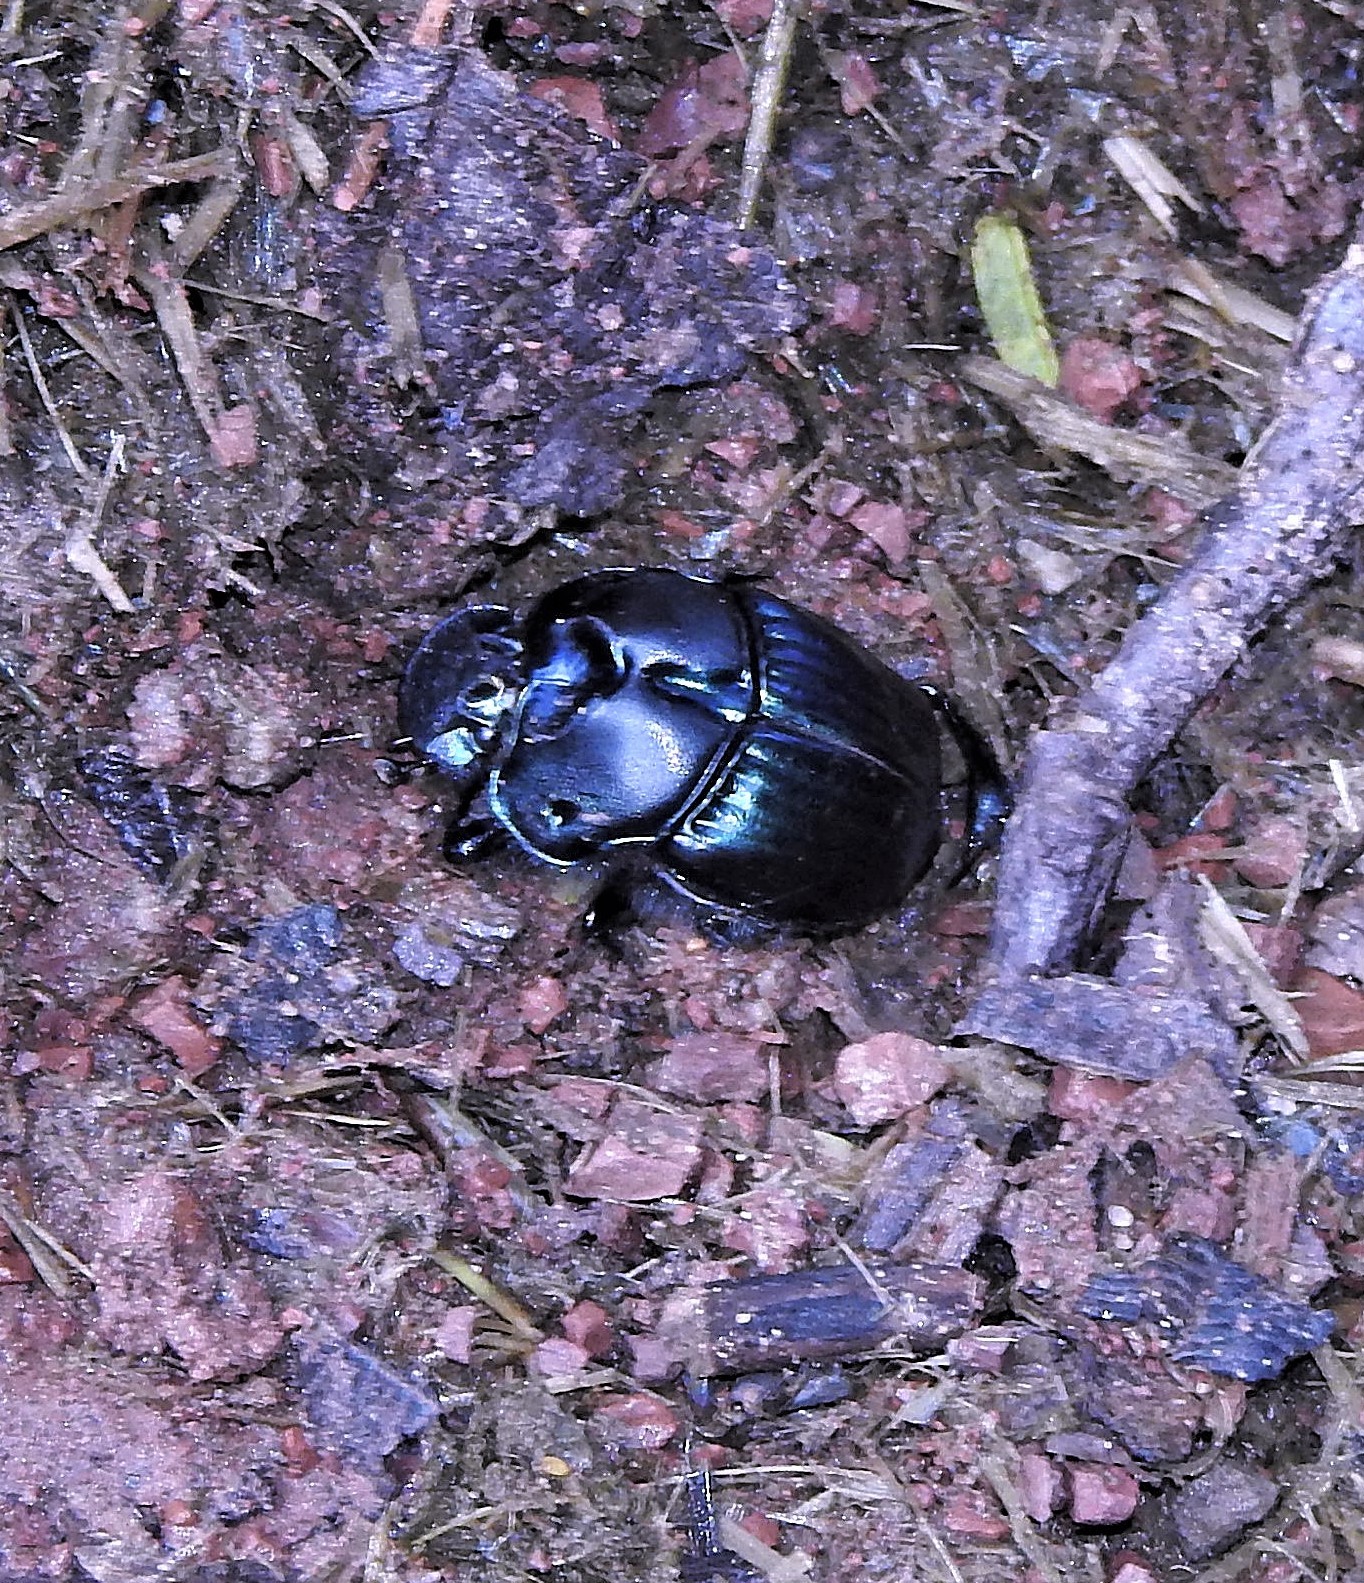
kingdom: Animalia
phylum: Arthropoda
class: Insecta
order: Coleoptera
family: Scarabaeidae
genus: Sulcophanaeus
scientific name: Sulcophanaeus batesi
